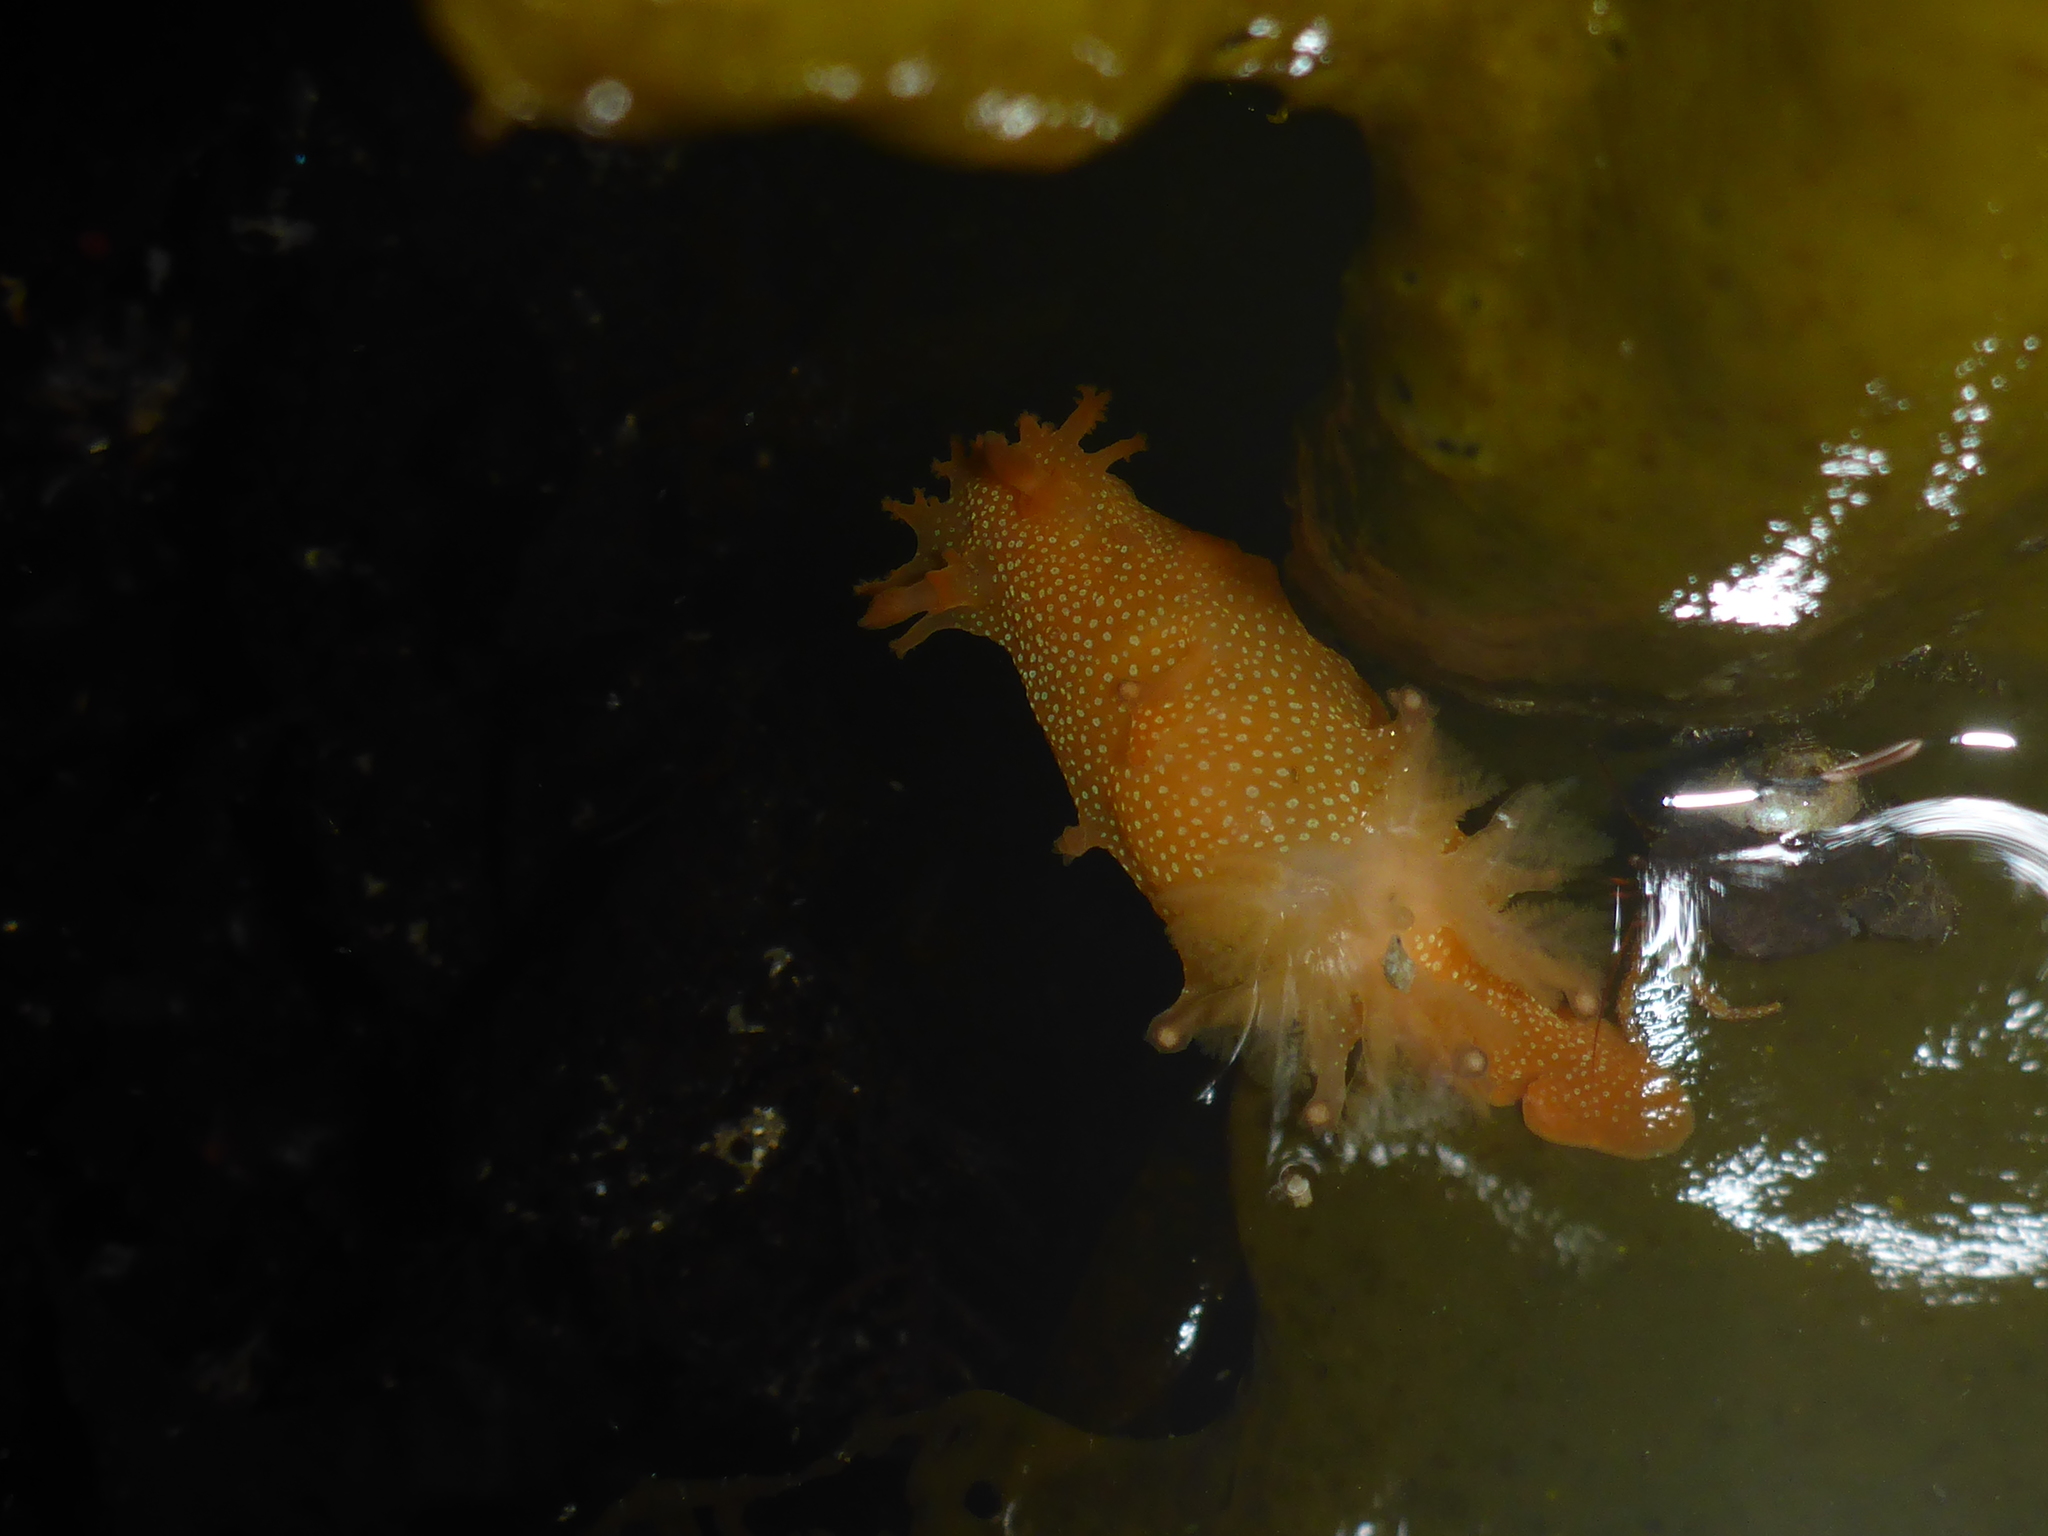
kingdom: Animalia
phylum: Mollusca
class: Gastropoda
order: Nudibranchia
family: Polyceridae
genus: Triopha
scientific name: Triopha maculata
